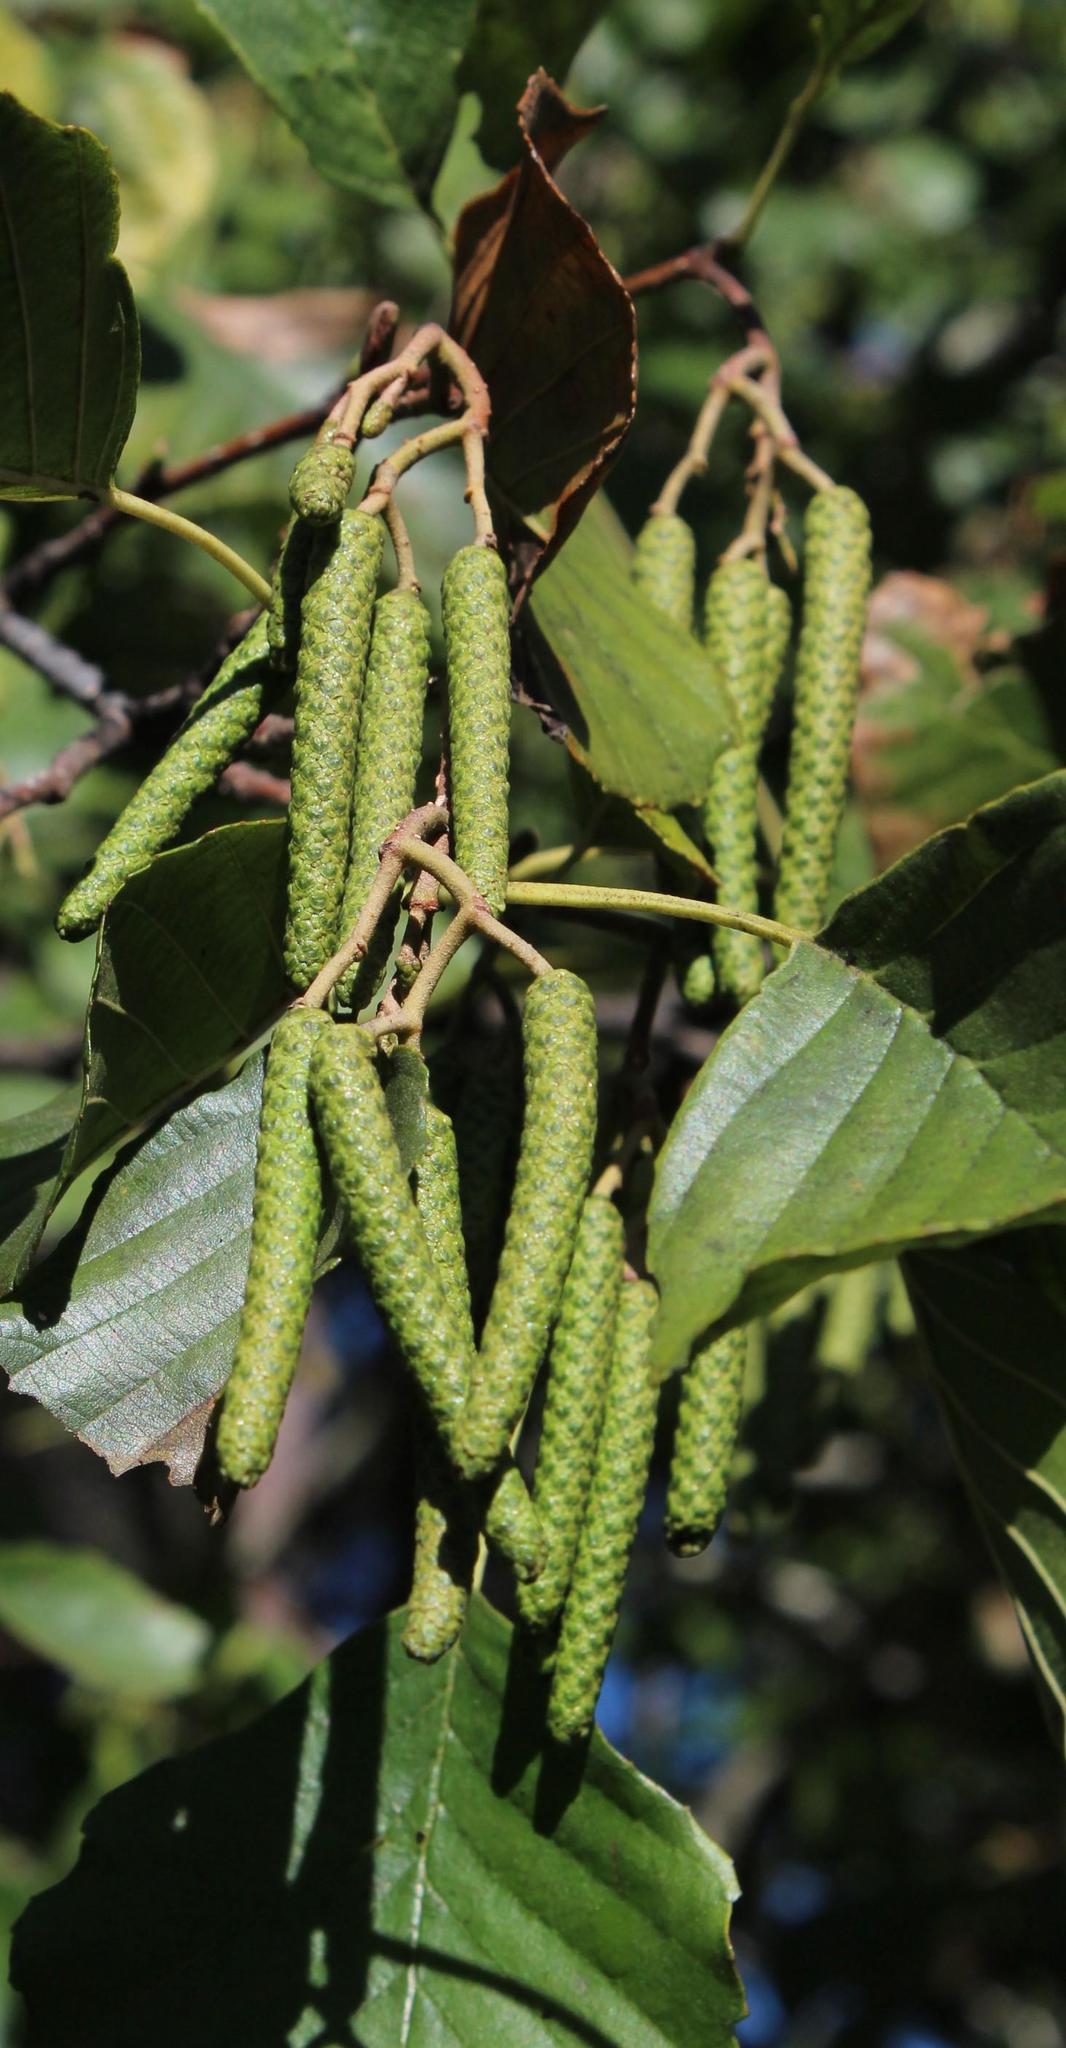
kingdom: Plantae
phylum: Tracheophyta
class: Magnoliopsida
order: Fagales
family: Betulaceae
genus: Alnus
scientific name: Alnus glutinosa
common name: Black alder
